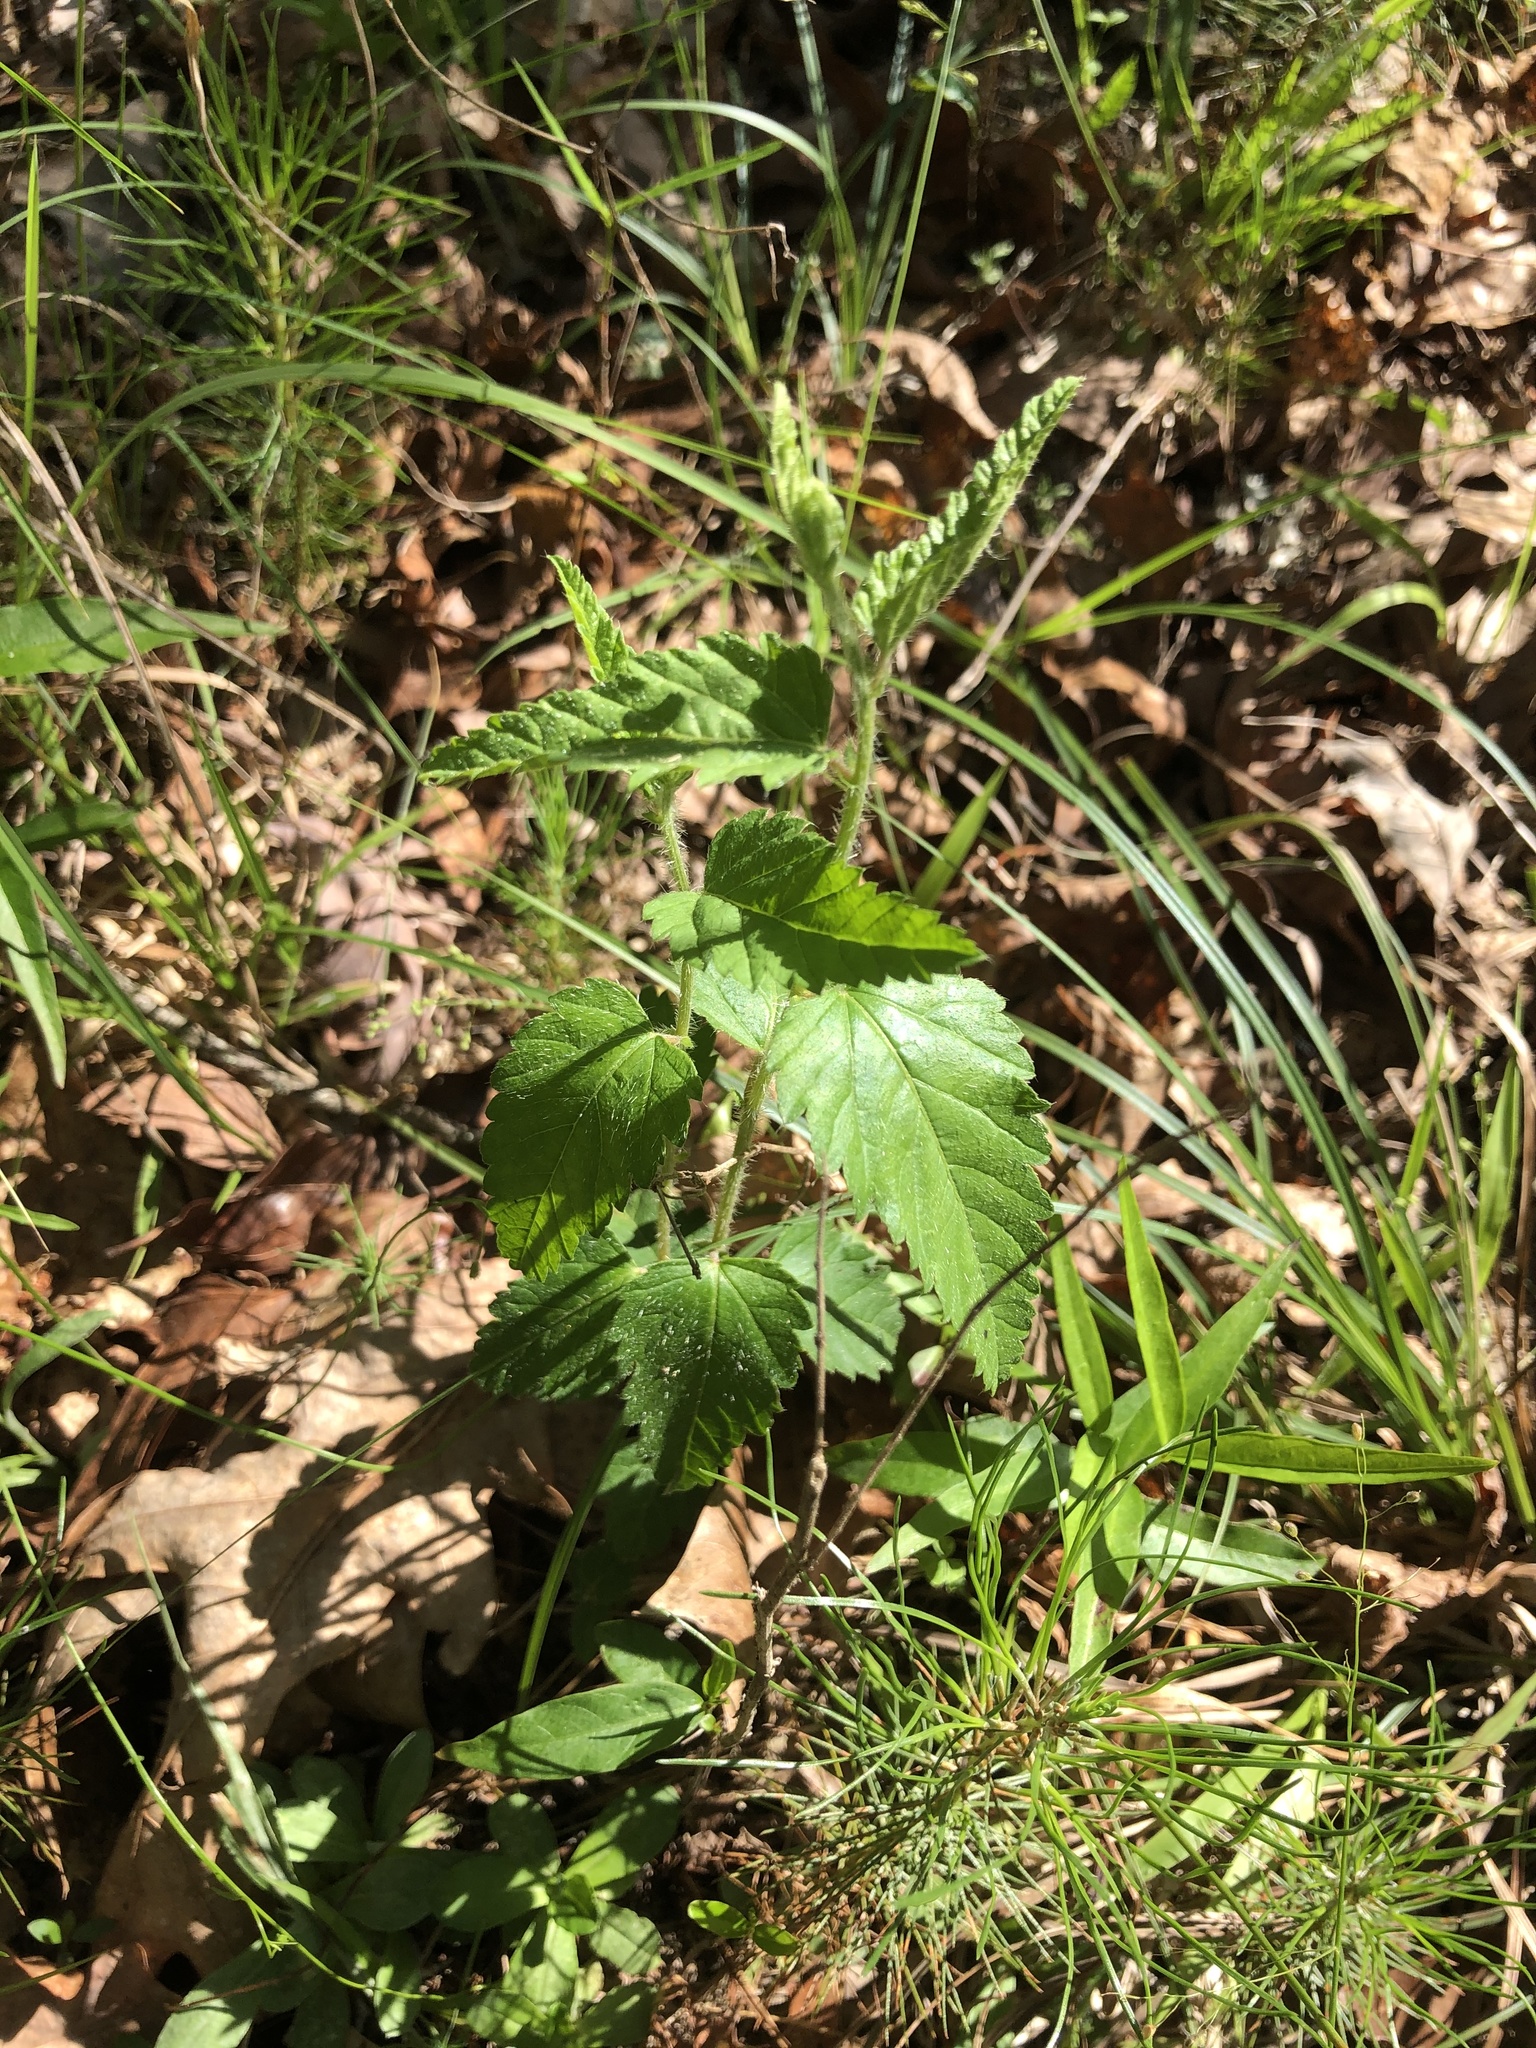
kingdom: Plantae
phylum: Tracheophyta
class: Magnoliopsida
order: Malpighiales
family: Euphorbiaceae
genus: Tragia
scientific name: Tragia urticifolia
